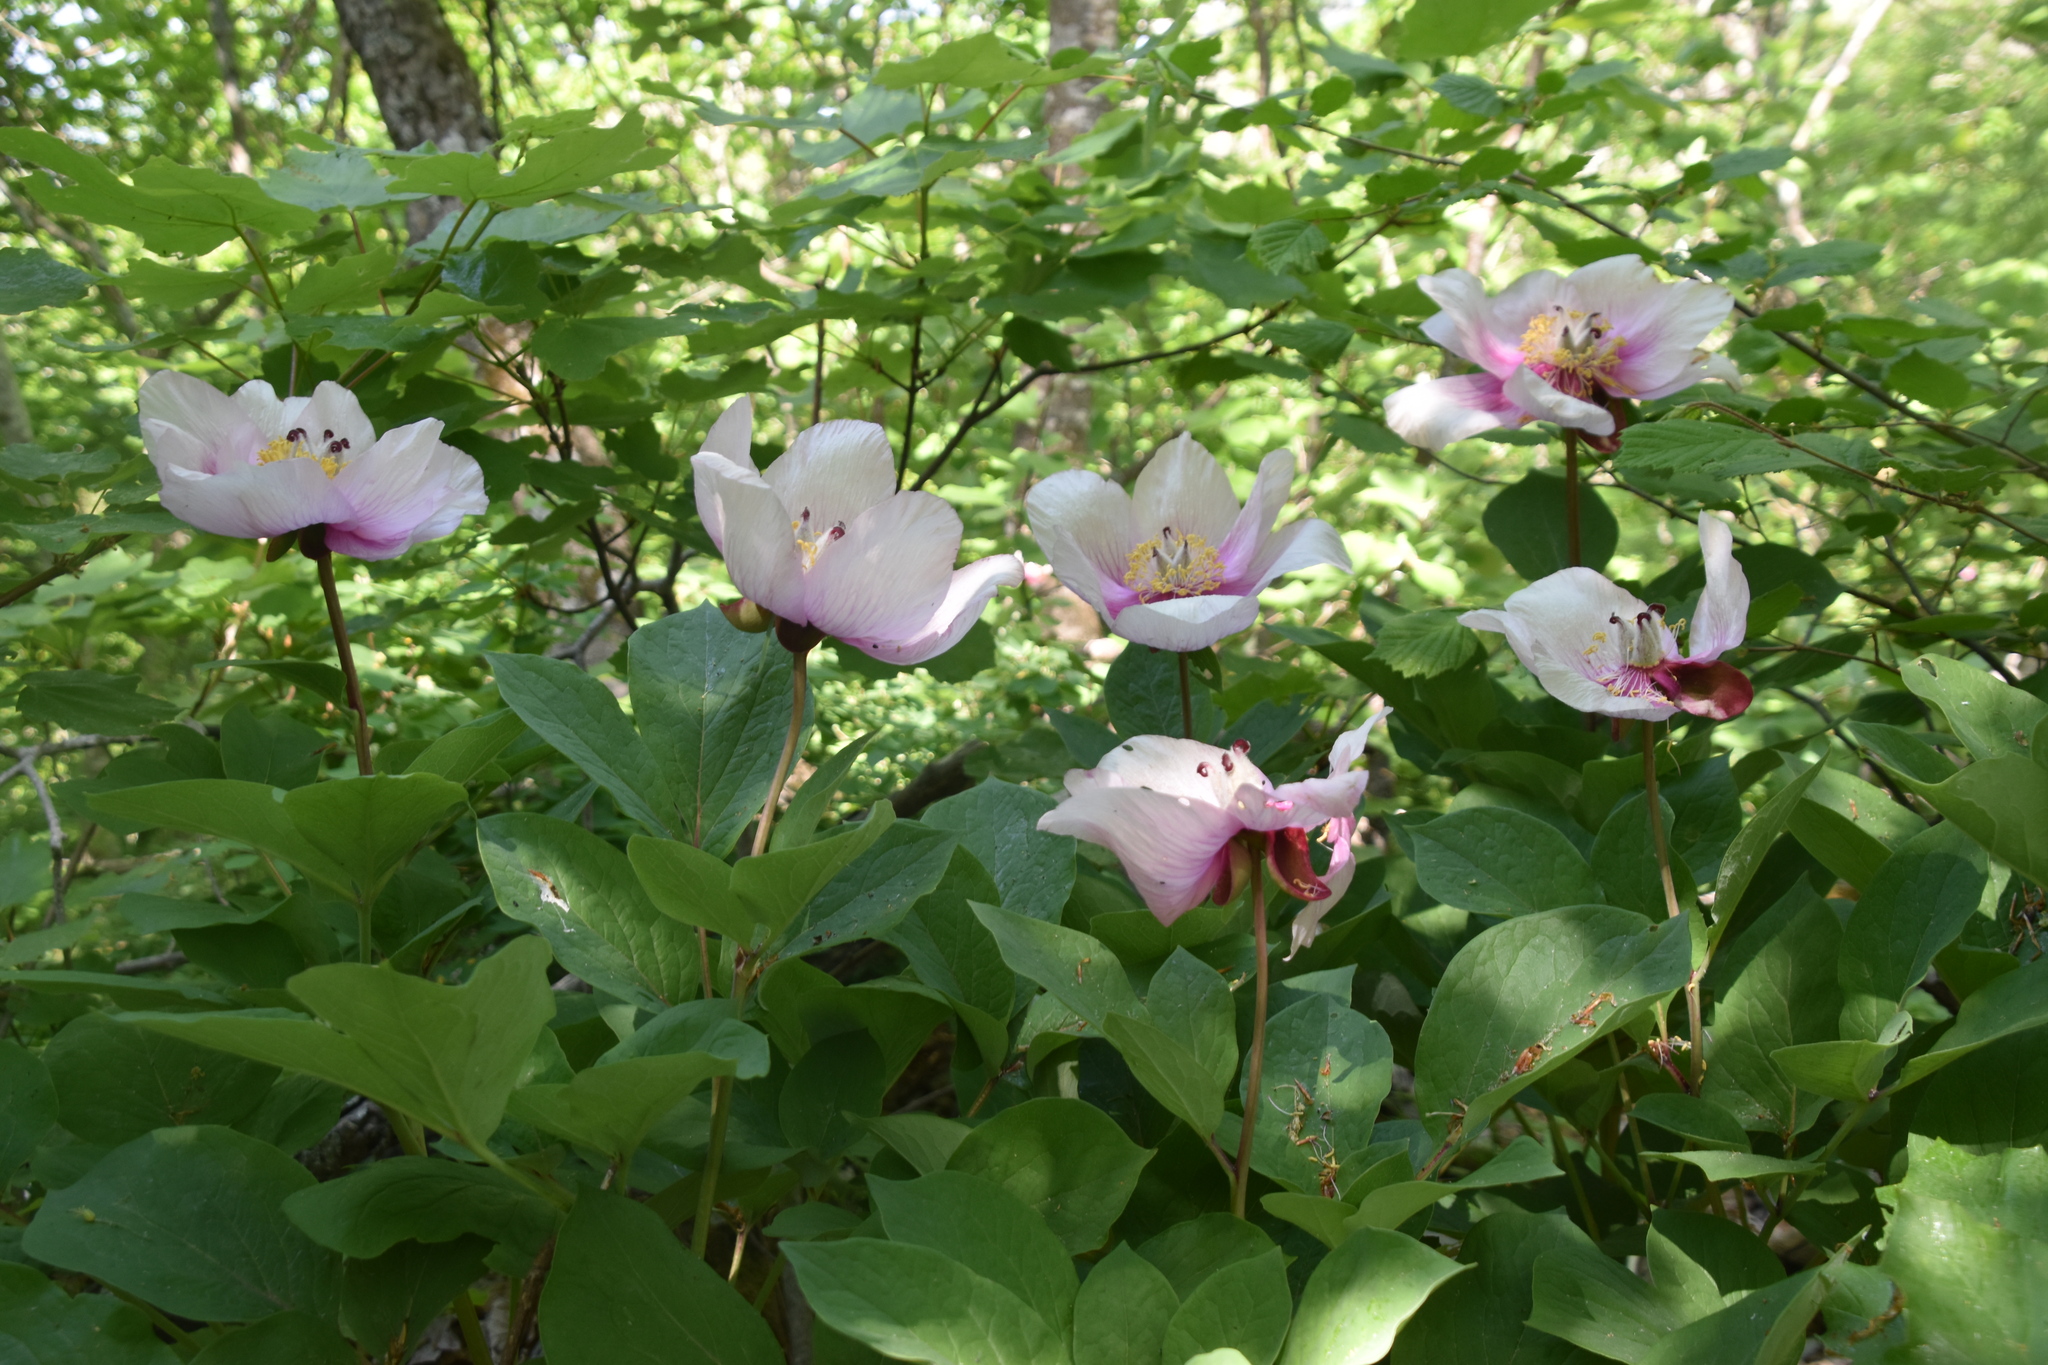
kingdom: Plantae
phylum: Tracheophyta
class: Magnoliopsida
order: Saxifragales
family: Paeoniaceae
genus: Paeonia
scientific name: Paeonia mascula
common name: Peony
